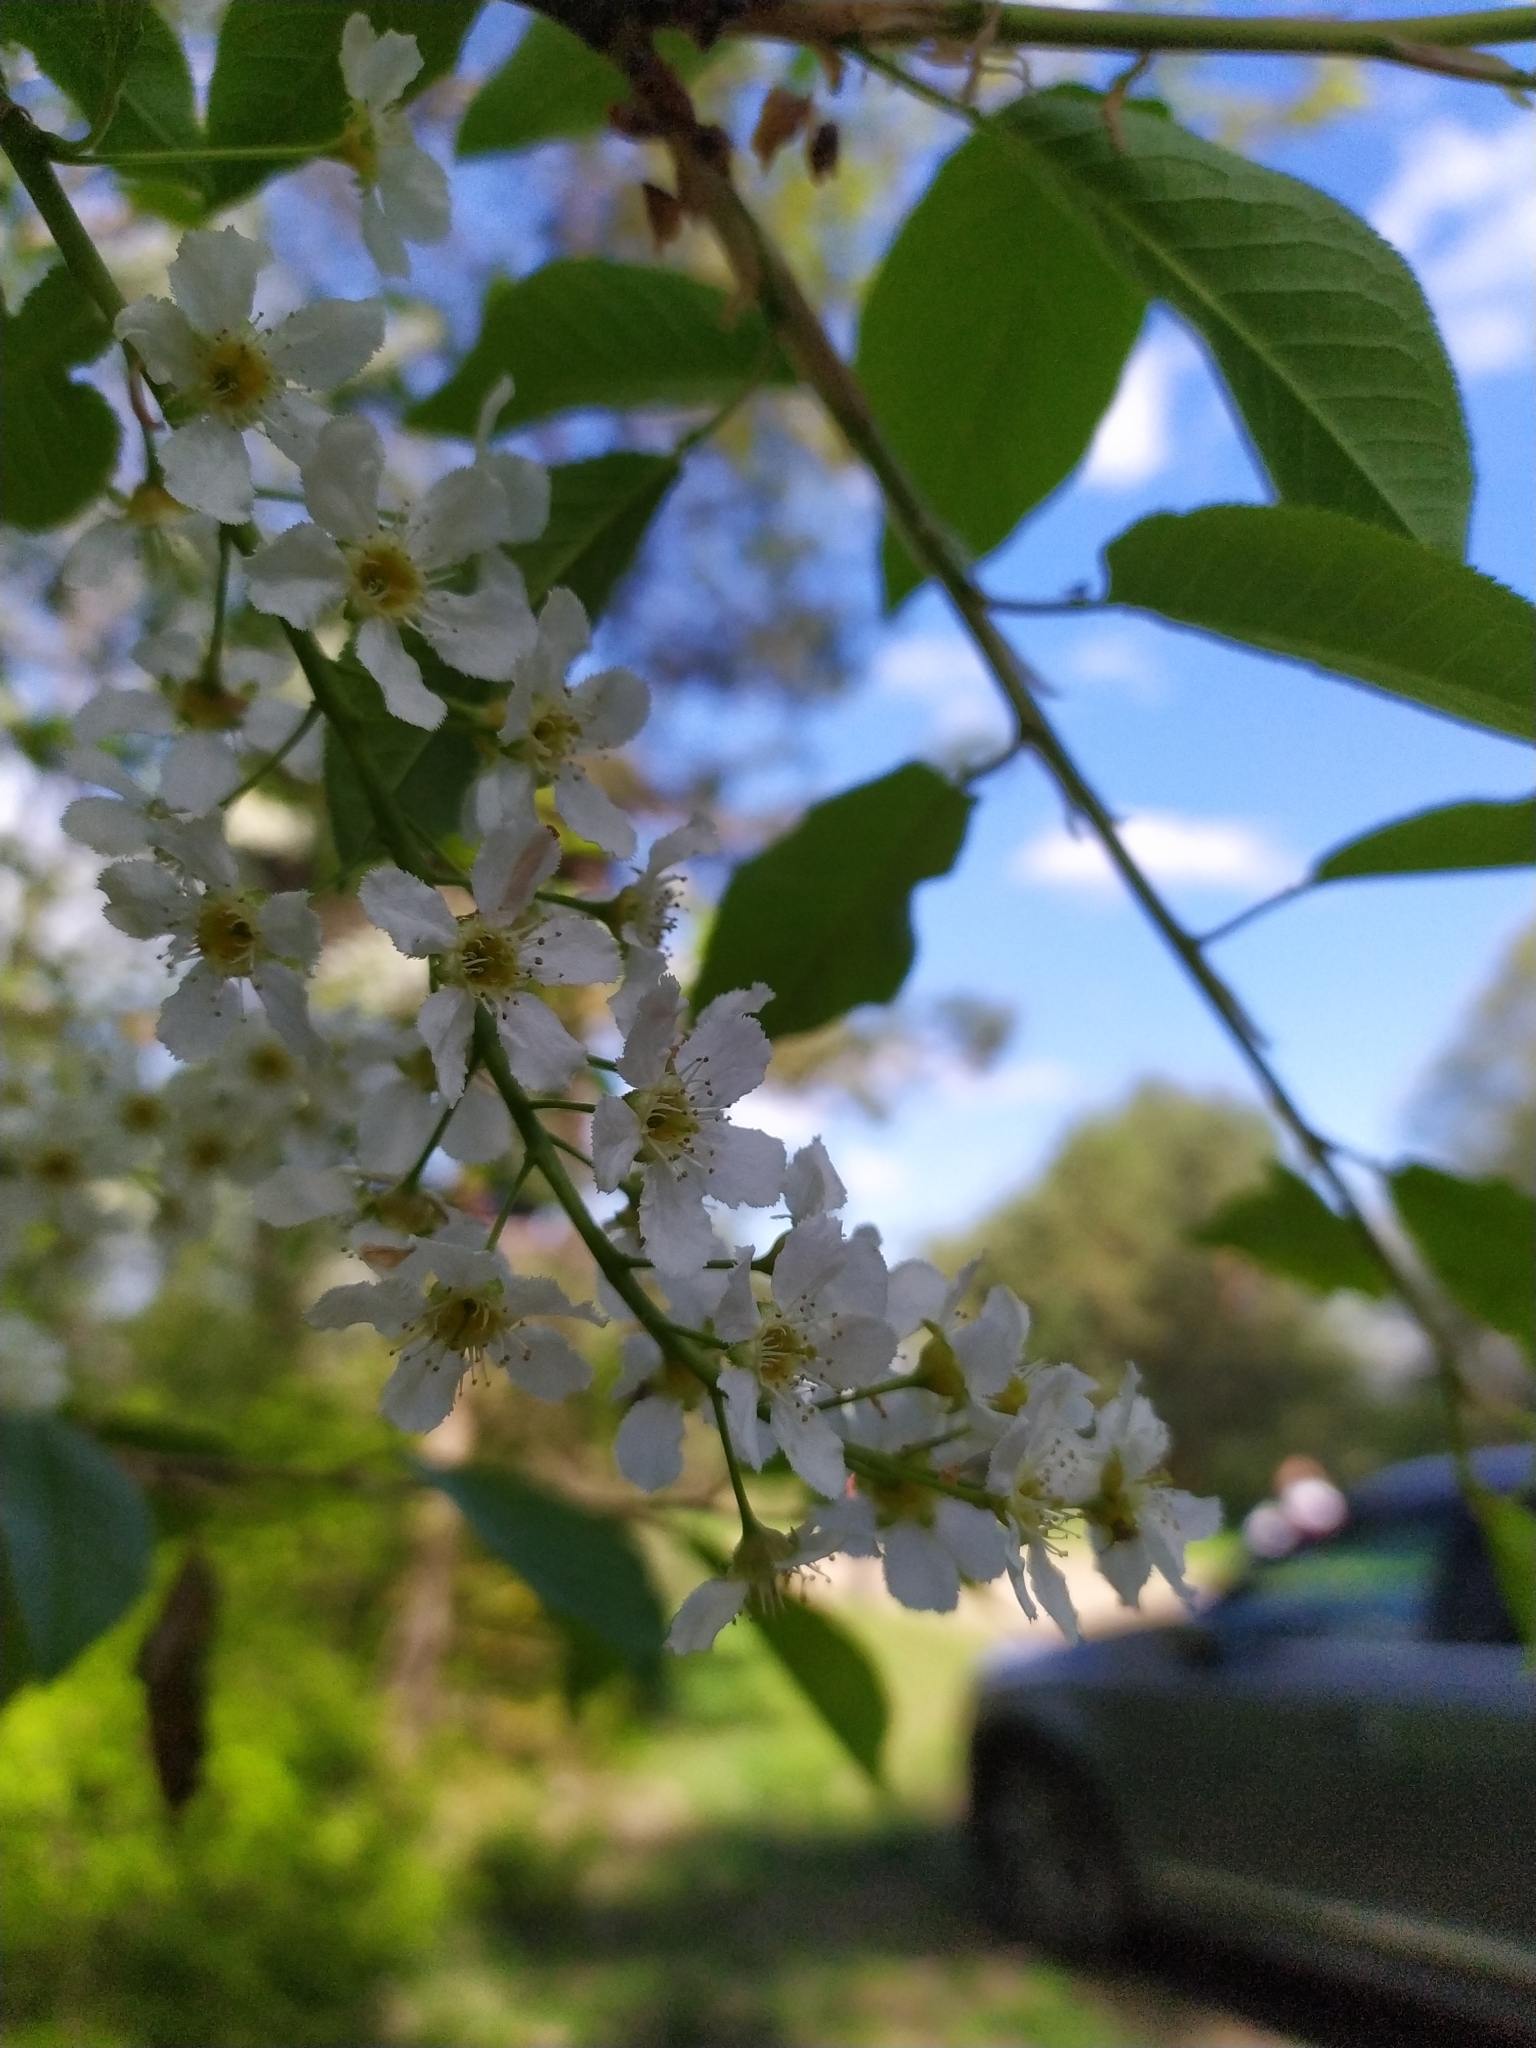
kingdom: Plantae
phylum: Tracheophyta
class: Magnoliopsida
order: Rosales
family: Rosaceae
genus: Prunus
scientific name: Prunus padus
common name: Bird cherry
